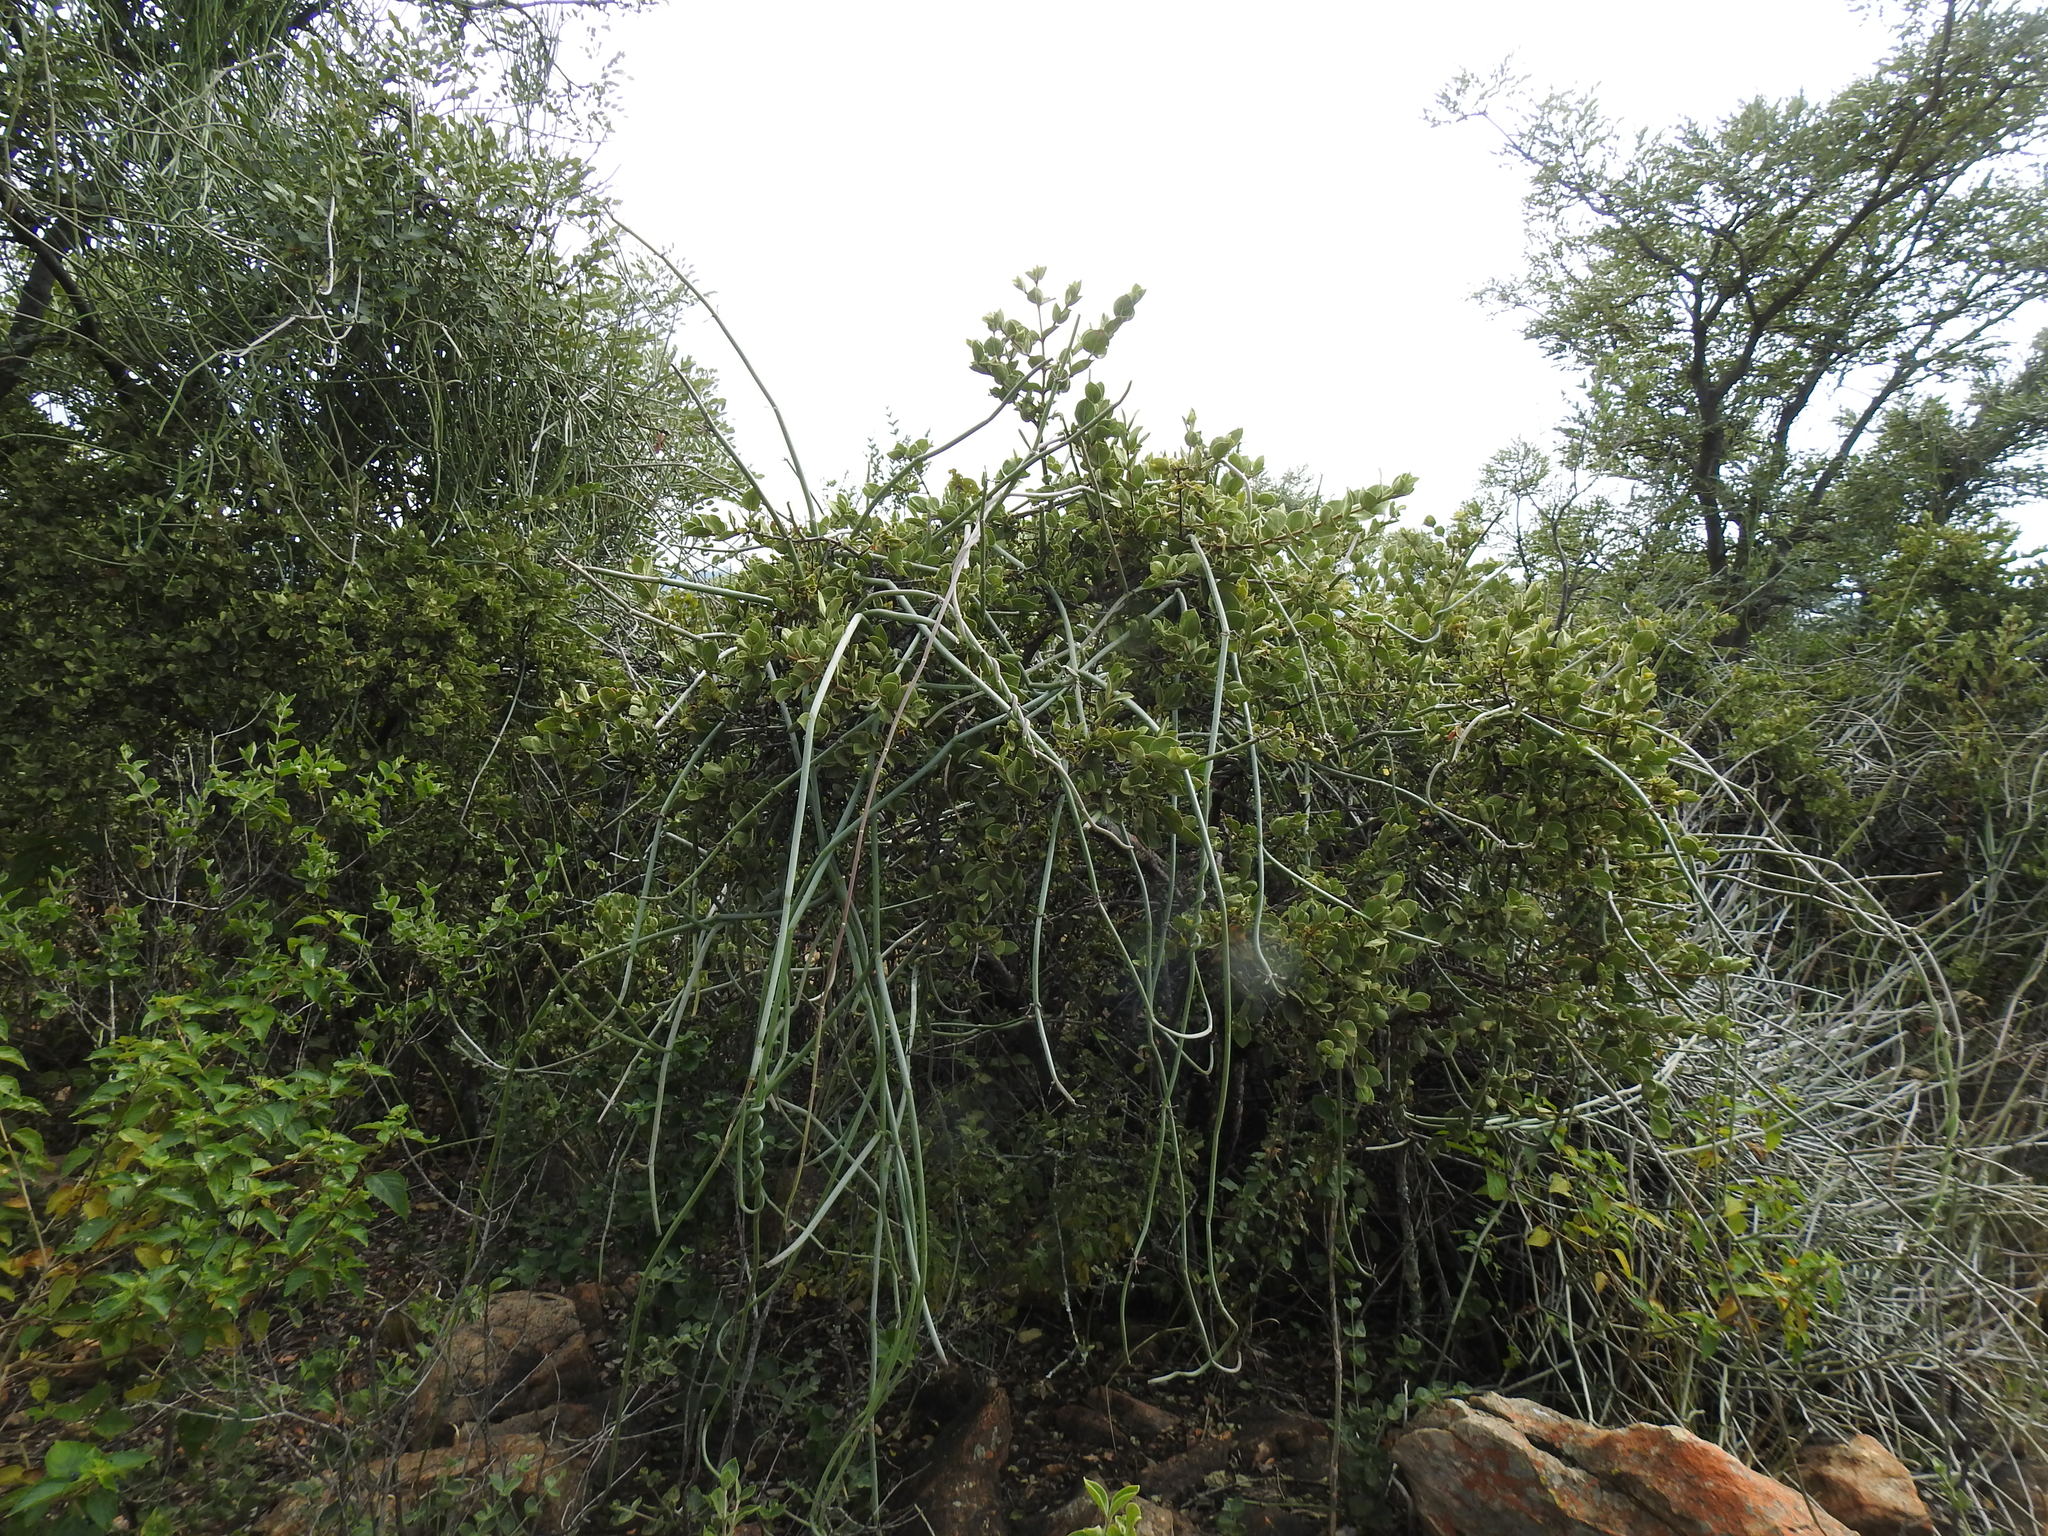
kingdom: Plantae
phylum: Tracheophyta
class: Magnoliopsida
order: Gentianales
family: Apocynaceae
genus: Cynanchum
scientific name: Cynanchum viminale
